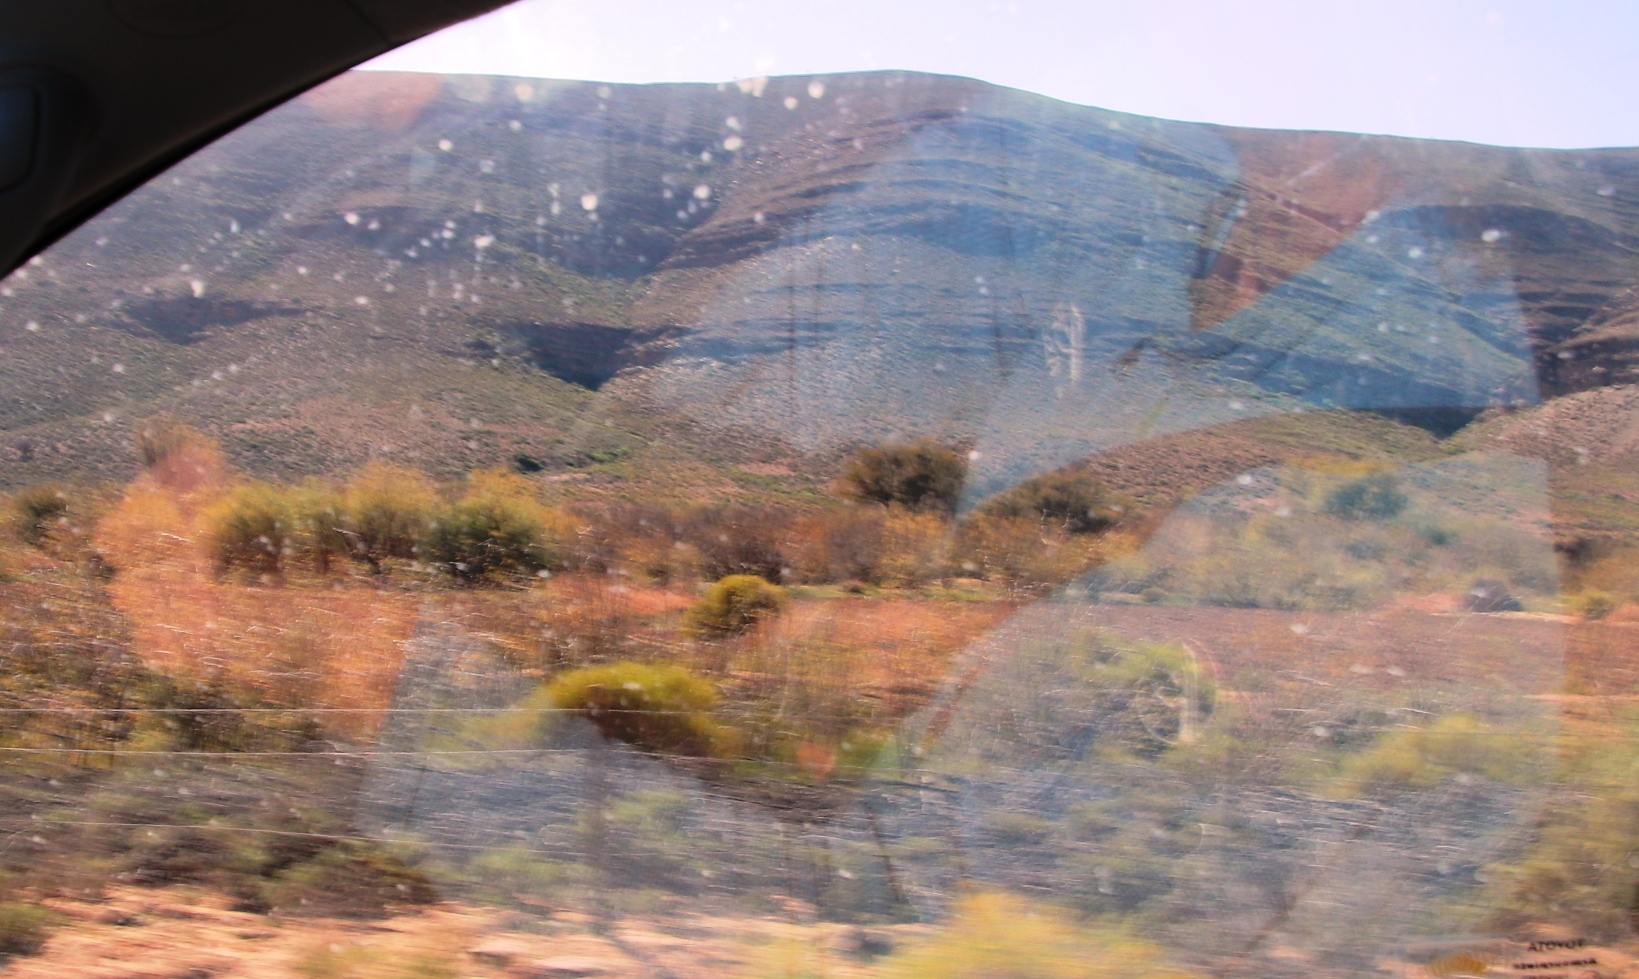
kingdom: Plantae
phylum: Tracheophyta
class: Magnoliopsida
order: Fabales
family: Fabaceae
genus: Prosopis
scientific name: Prosopis pubescens
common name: Screw-bean
